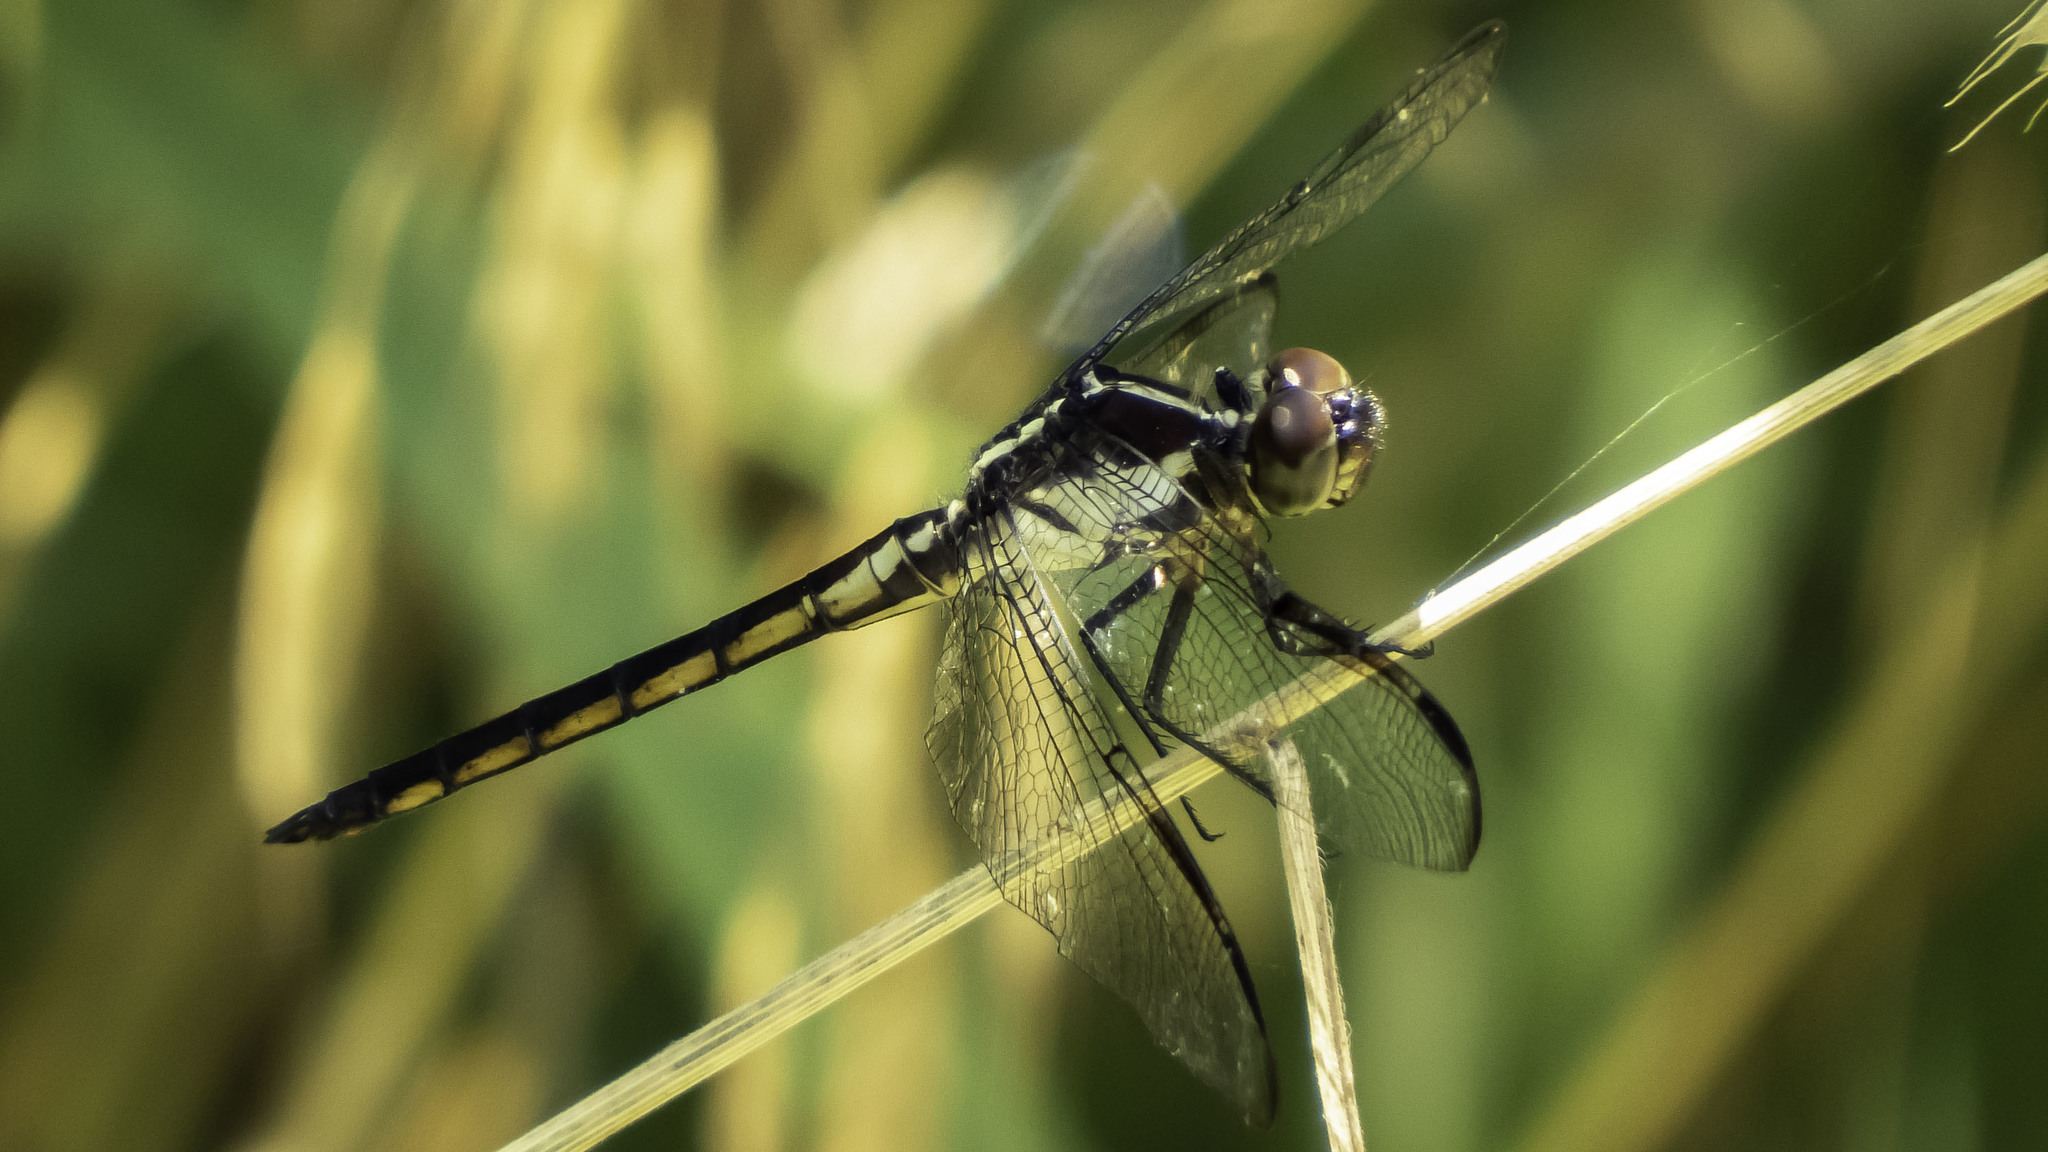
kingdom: Animalia
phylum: Arthropoda
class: Insecta
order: Odonata
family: Libellulidae
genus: Libellula
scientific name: Libellula incesta
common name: Slaty skimmer
